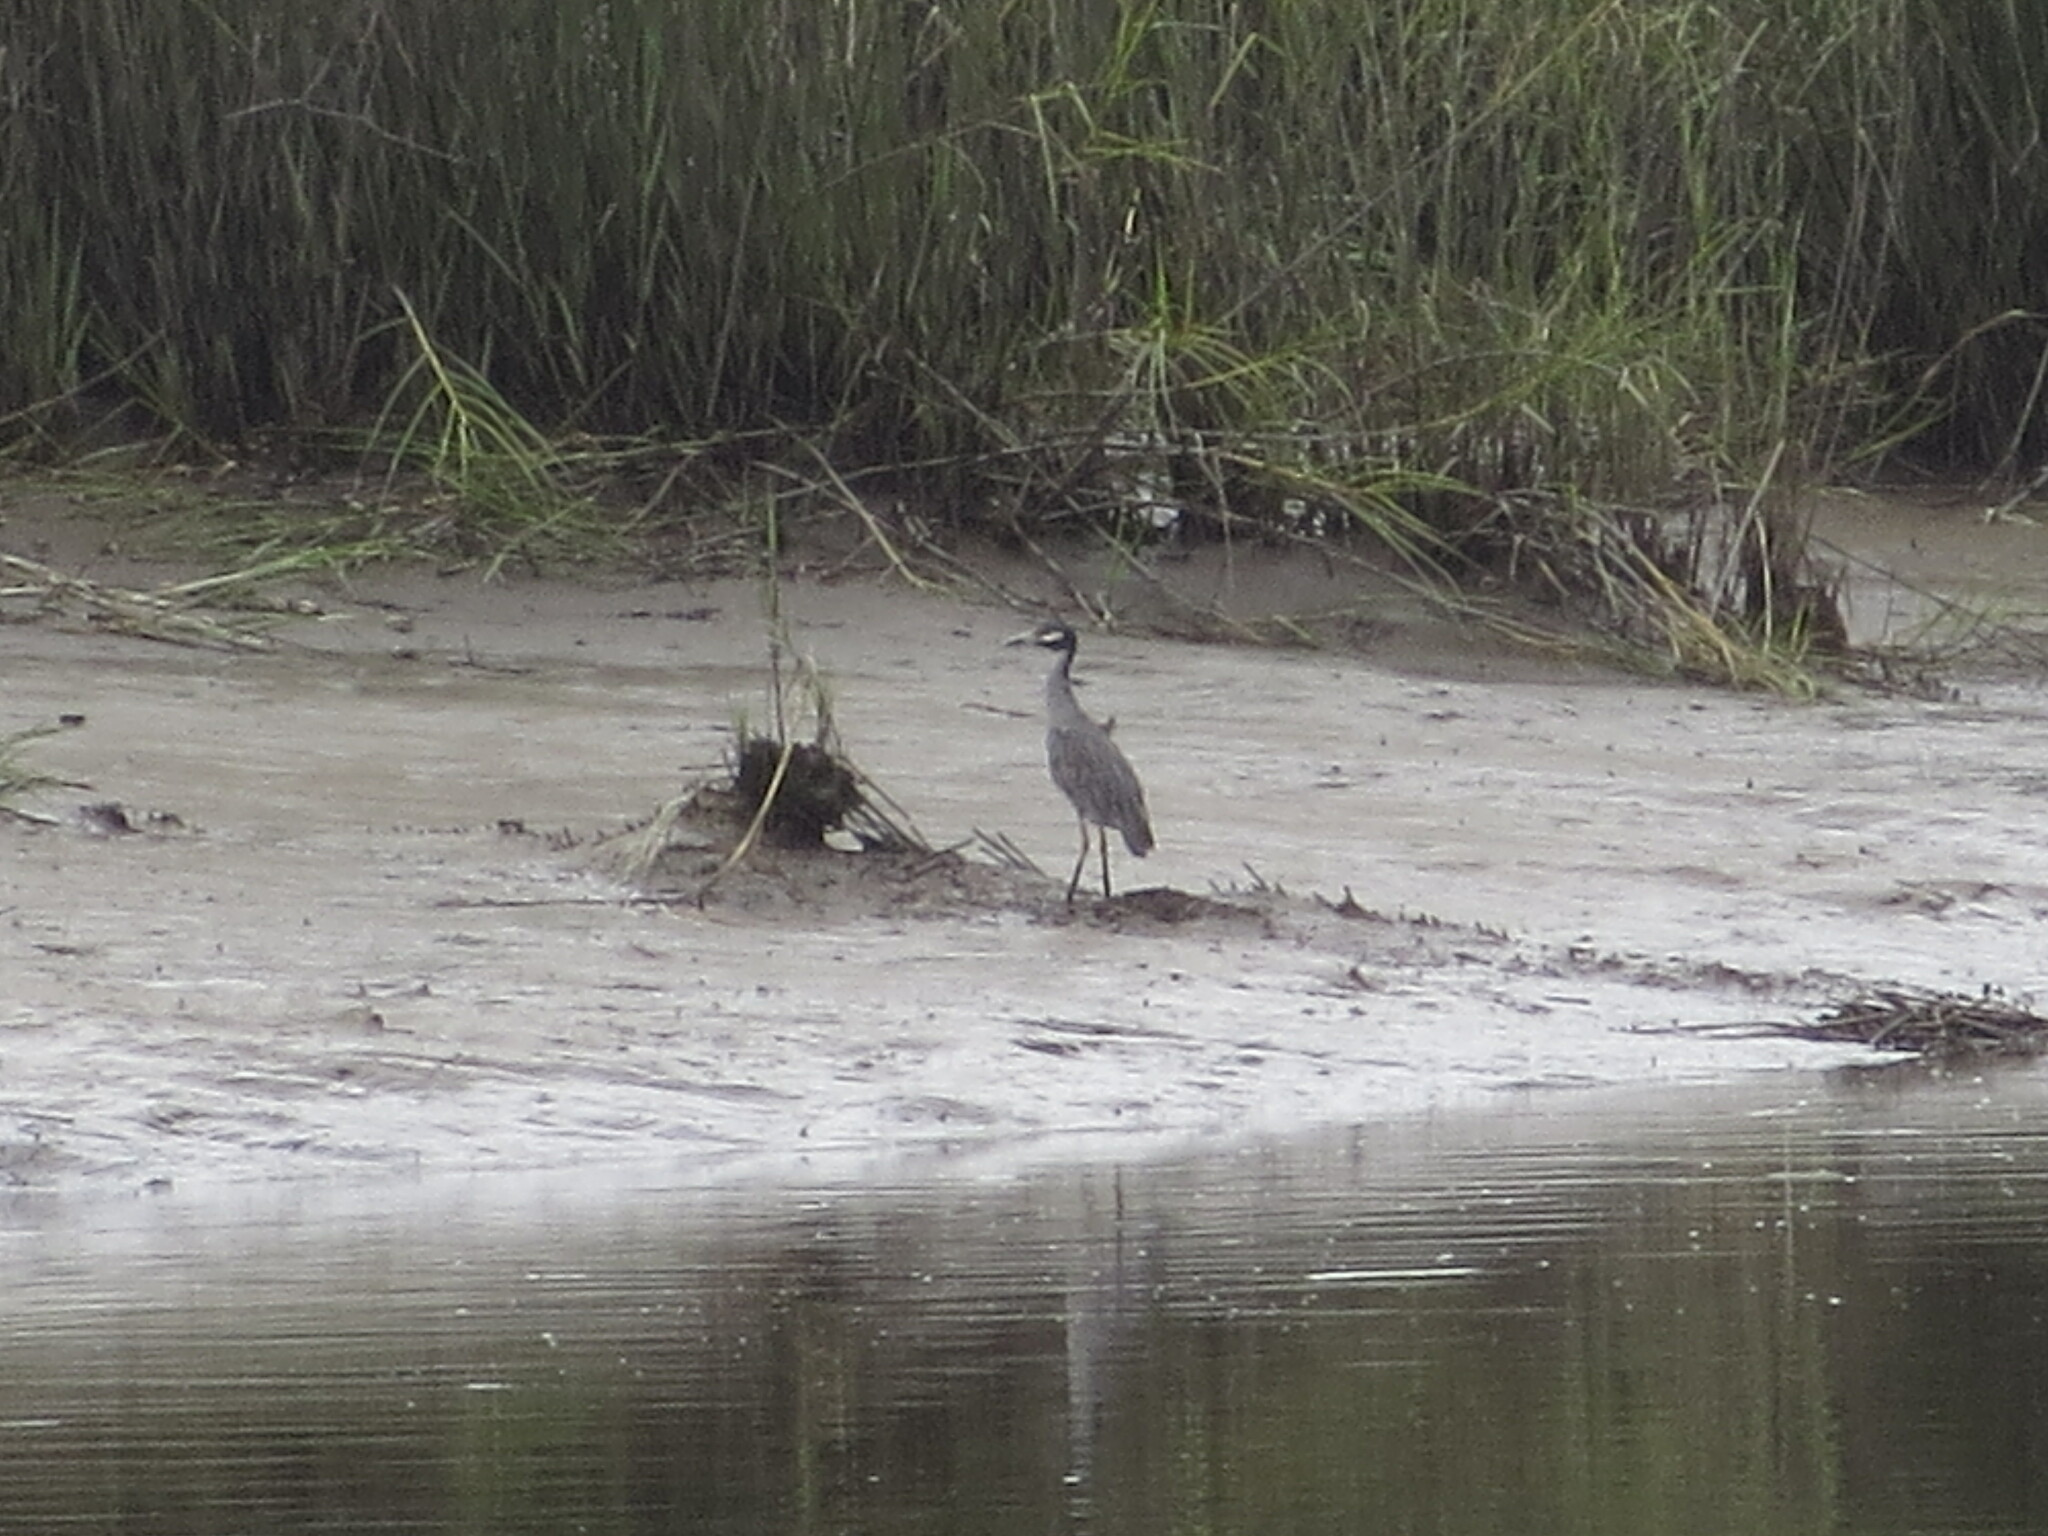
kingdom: Animalia
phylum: Chordata
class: Aves
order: Pelecaniformes
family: Ardeidae
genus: Nyctanassa
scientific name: Nyctanassa violacea
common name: Yellow-crowned night heron
